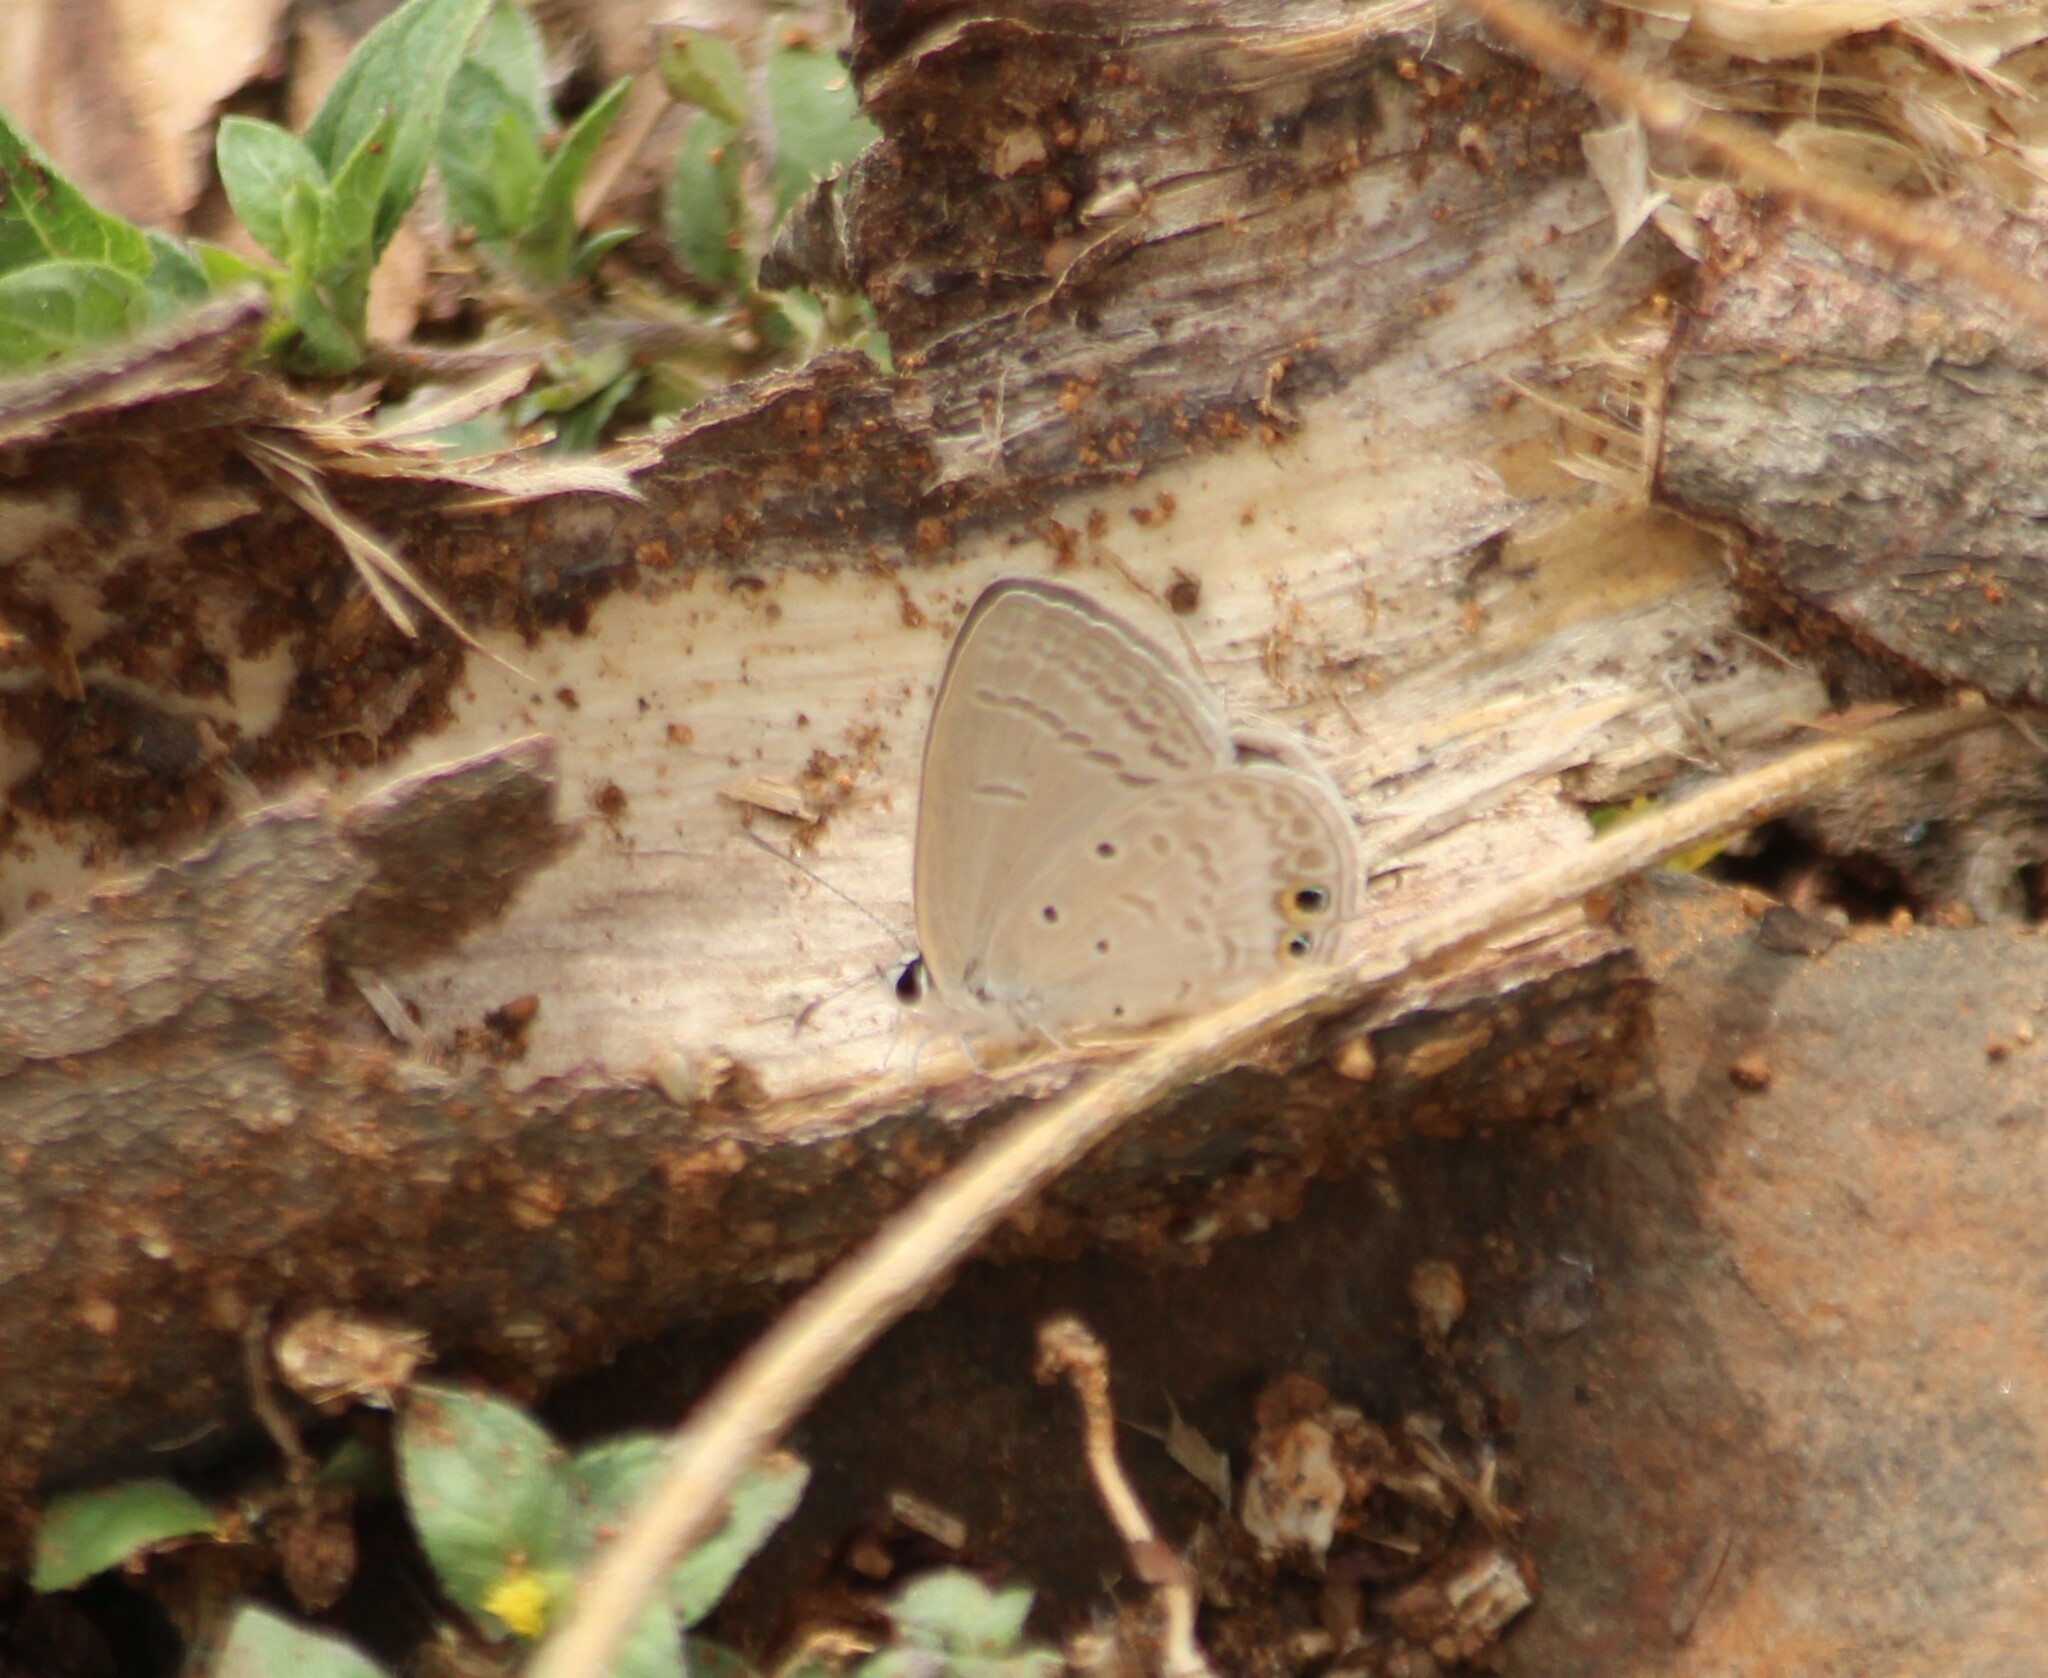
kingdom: Animalia
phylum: Arthropoda
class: Insecta
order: Lepidoptera
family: Lycaenidae
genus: Euchrysops
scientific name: Euchrysops cnejus
